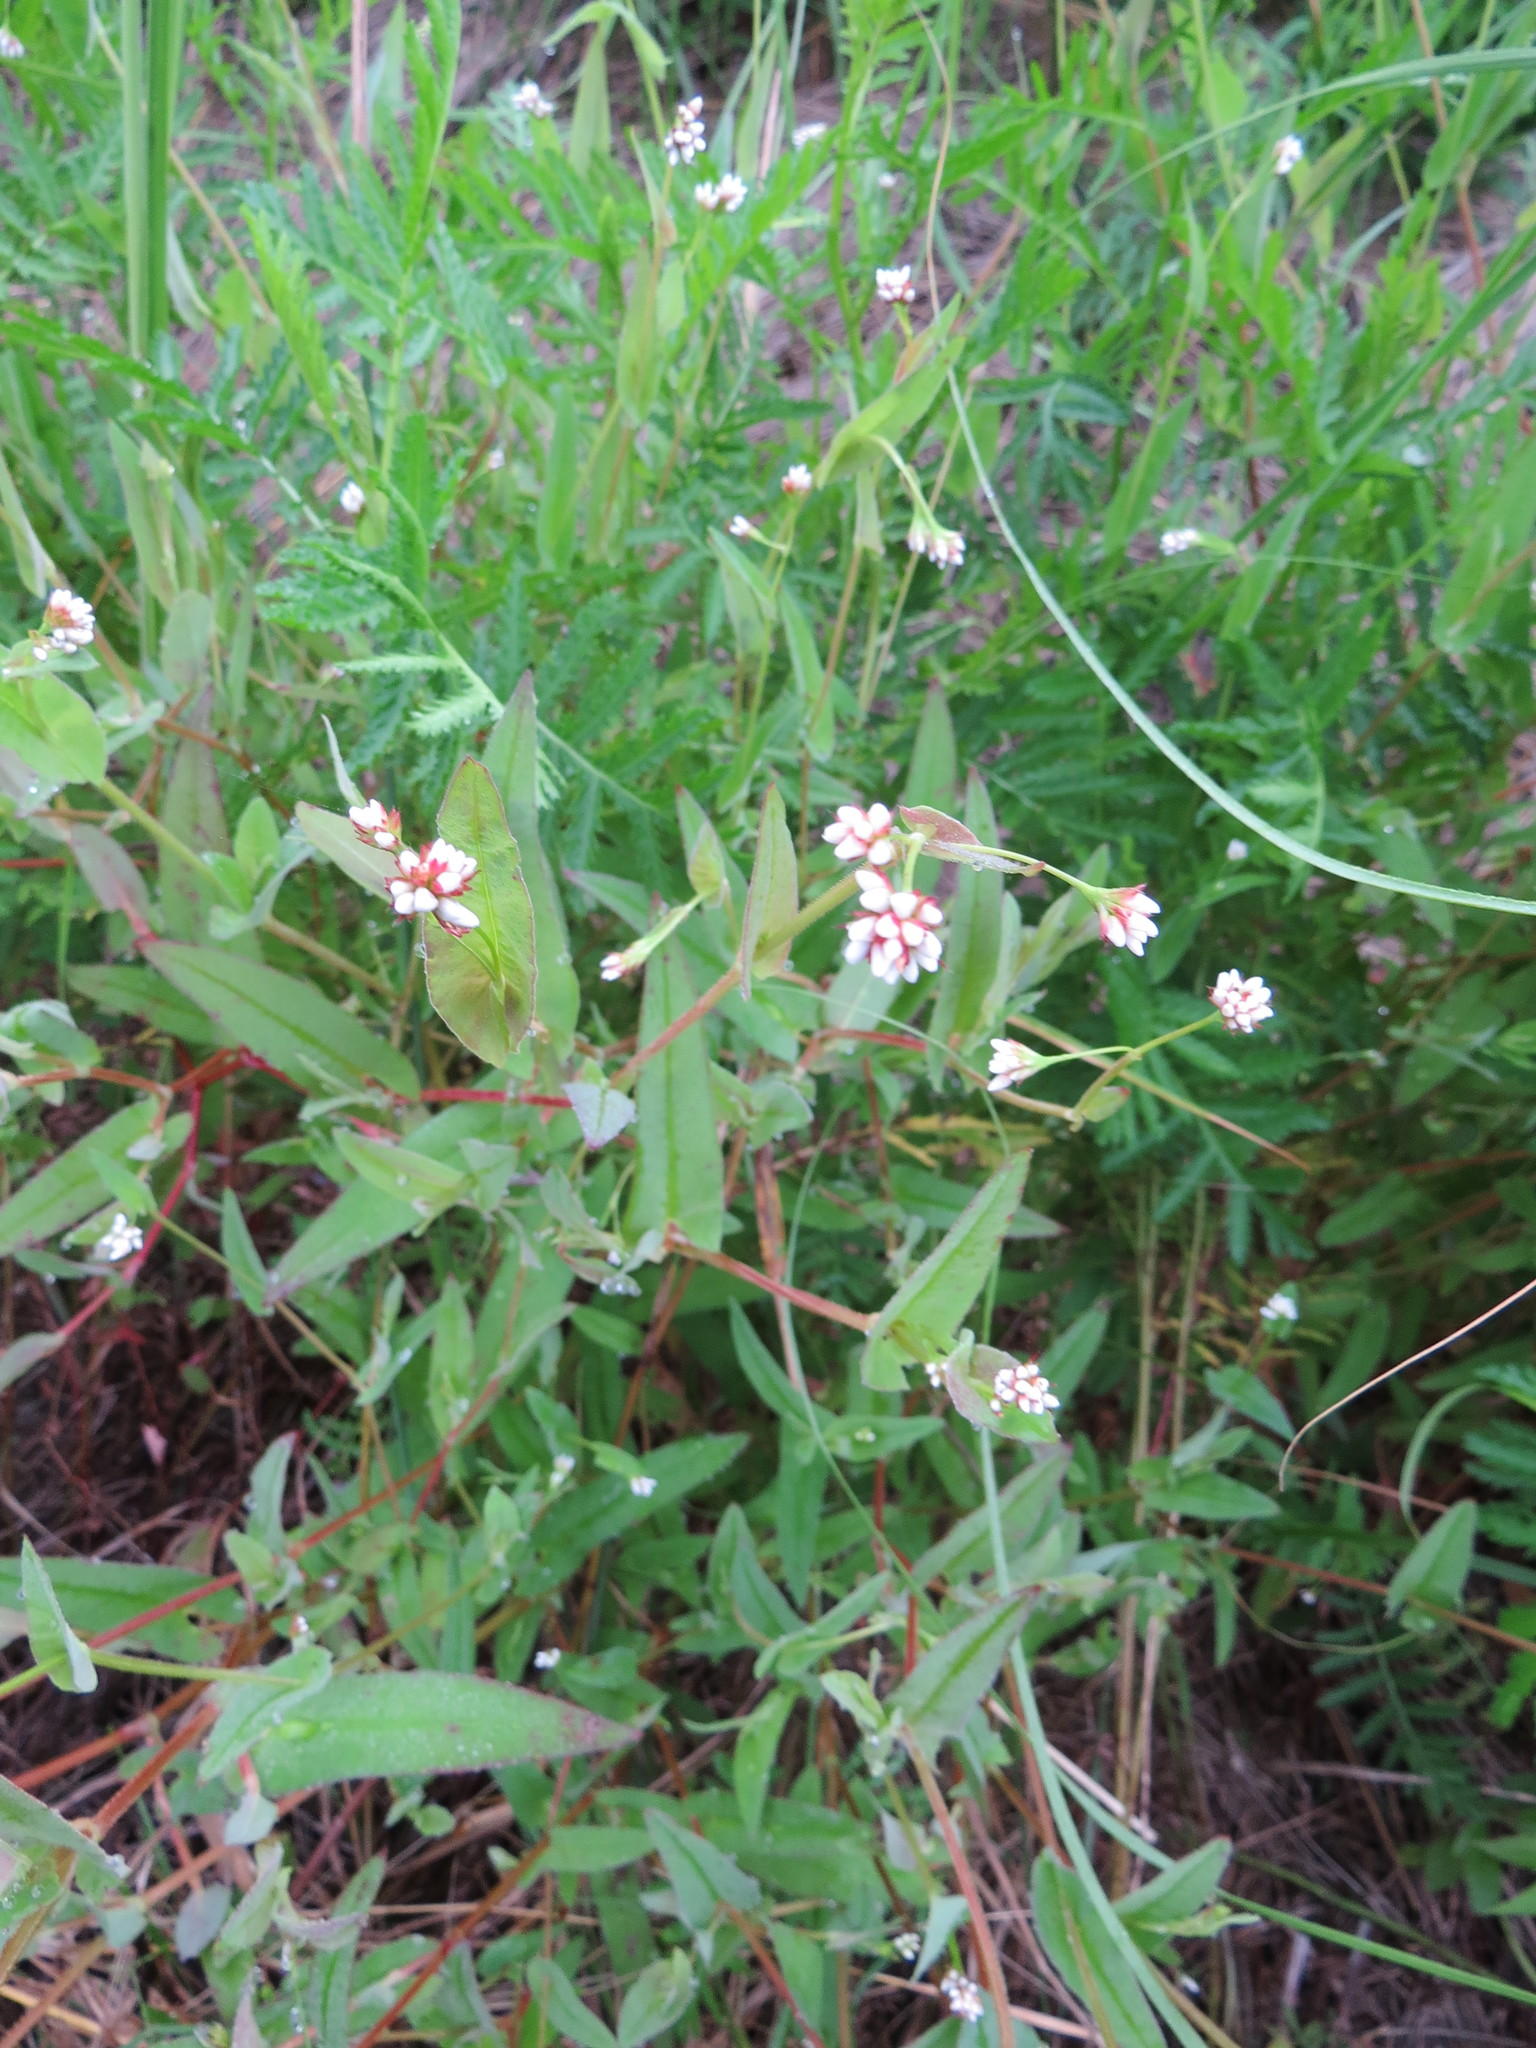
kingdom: Plantae
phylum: Tracheophyta
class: Magnoliopsida
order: Caryophyllales
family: Polygonaceae
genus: Persicaria
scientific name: Persicaria sagittata
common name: American tearthumb
